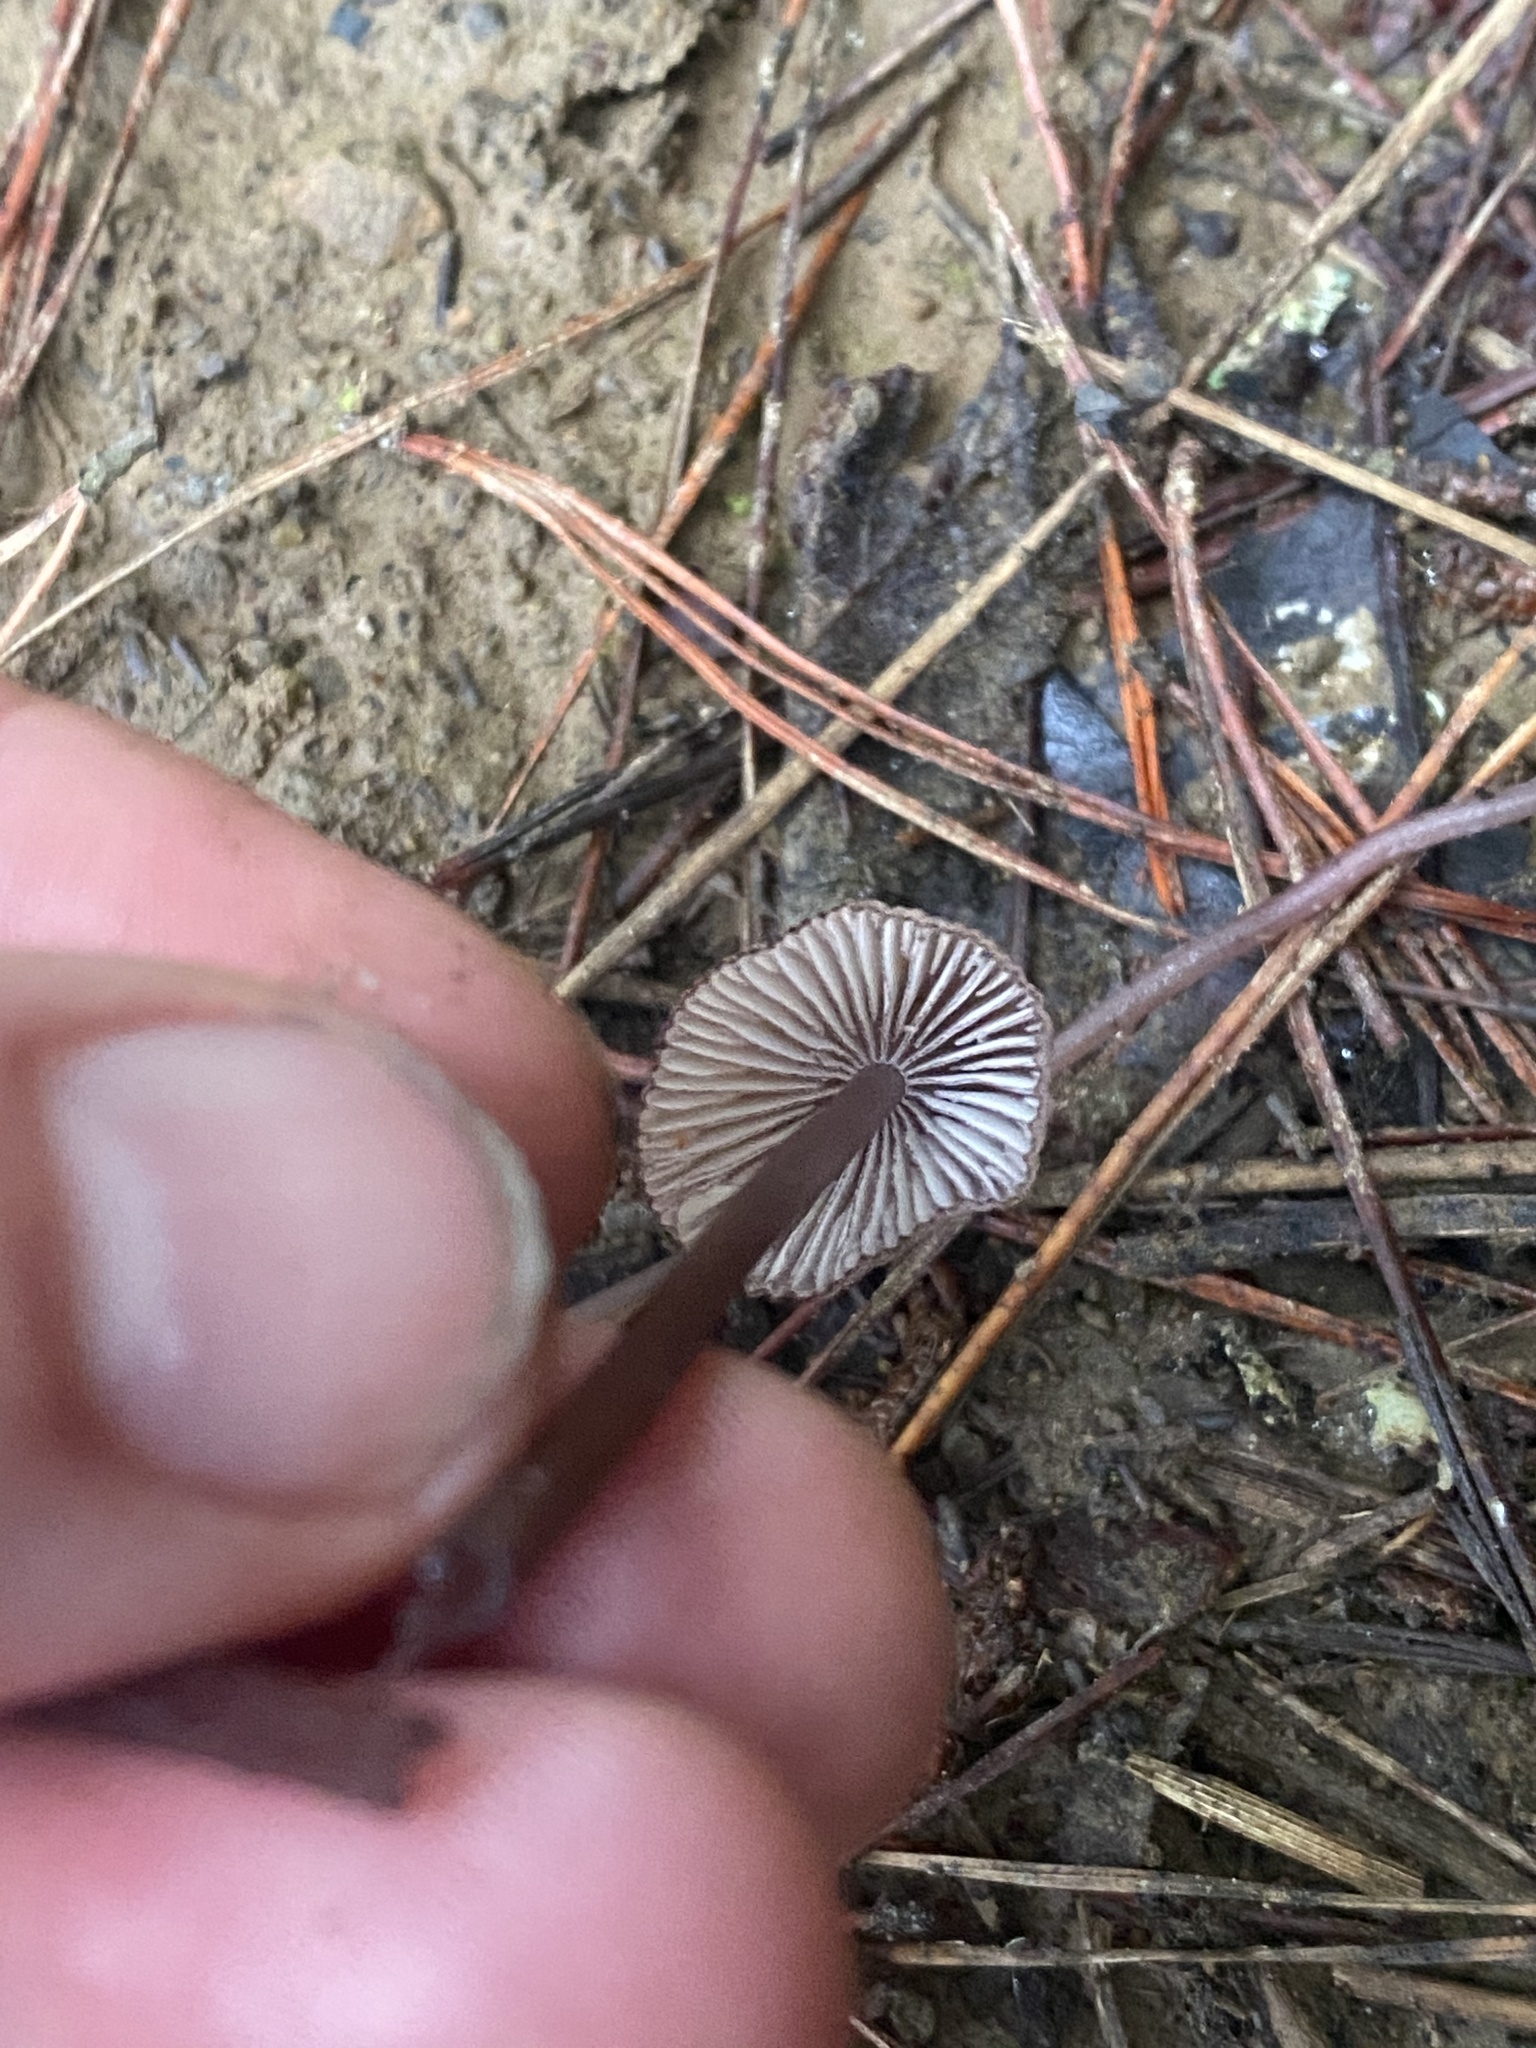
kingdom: Fungi
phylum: Basidiomycota
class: Agaricomycetes
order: Agaricales
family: Mycenaceae
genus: Mycena
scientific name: Mycena purpureofusca
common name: Purple edge bonnet
